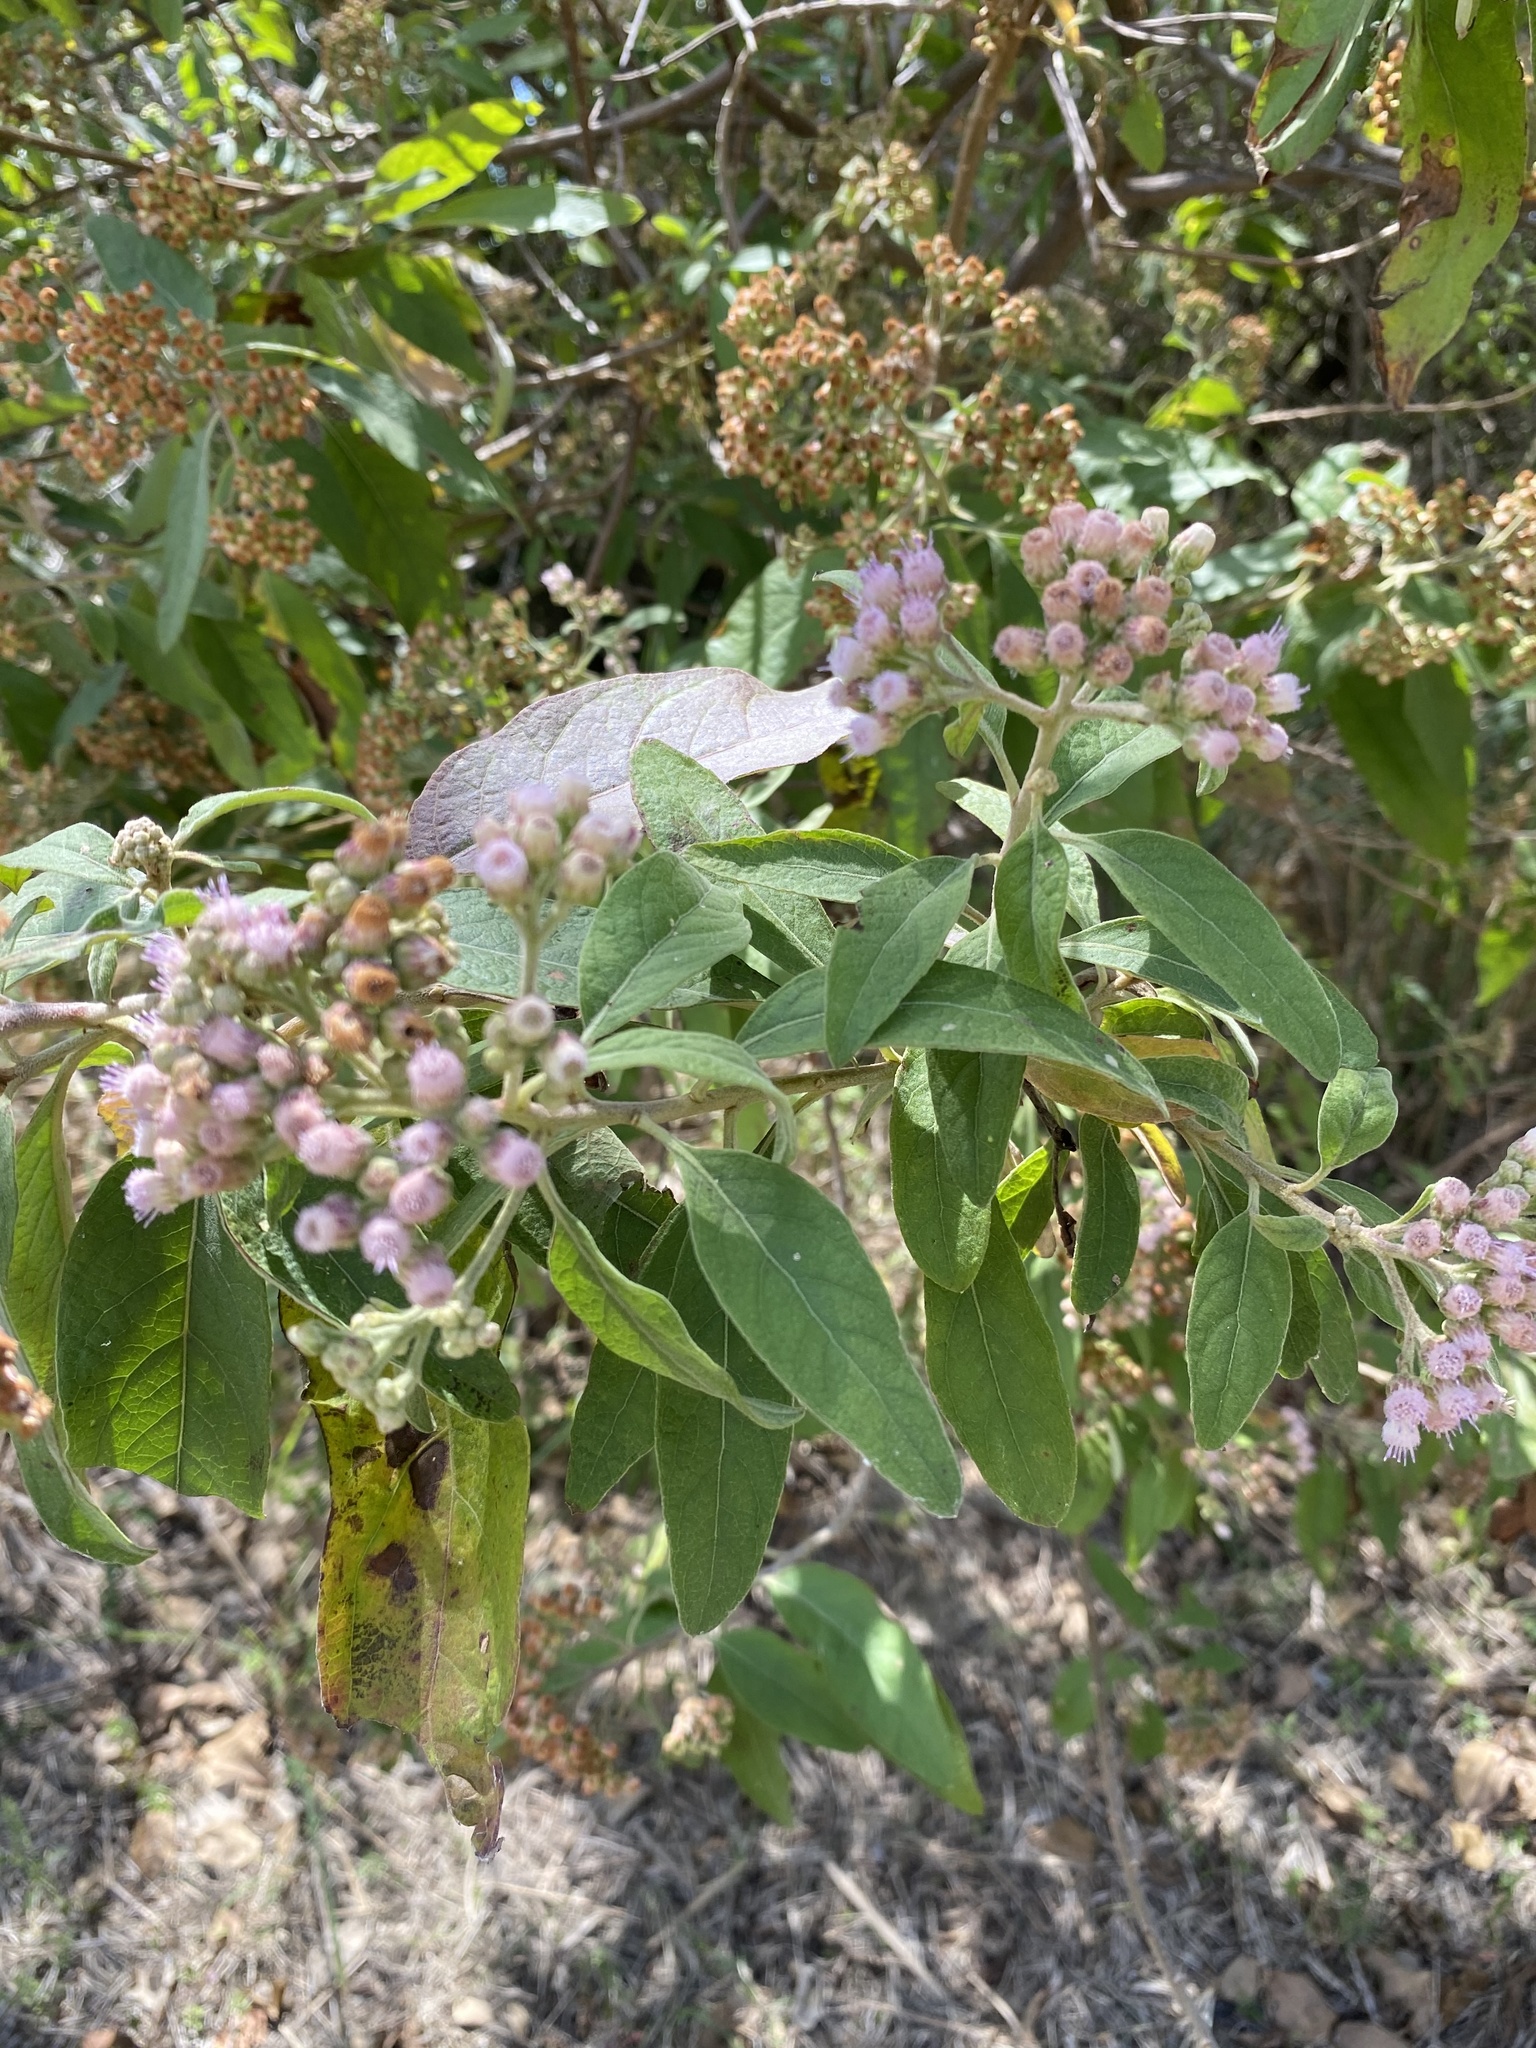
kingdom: Plantae
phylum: Tracheophyta
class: Magnoliopsida
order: Asterales
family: Asteraceae
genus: Pluchea
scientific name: Pluchea carolinensis
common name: Marsh fleabane
